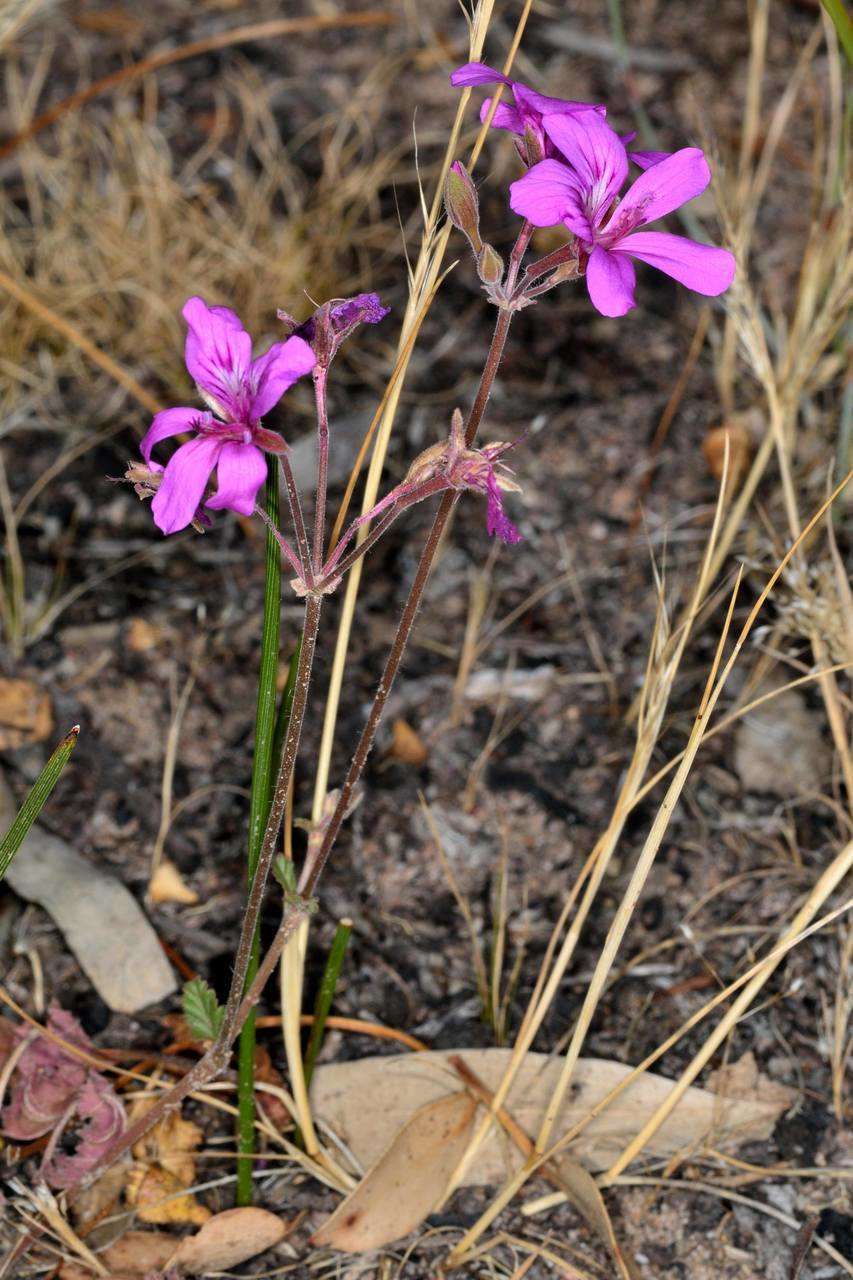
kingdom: Plantae
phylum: Tracheophyta
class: Magnoliopsida
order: Geraniales
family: Geraniaceae
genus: Pelargonium
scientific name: Pelargonium rodneyanum
